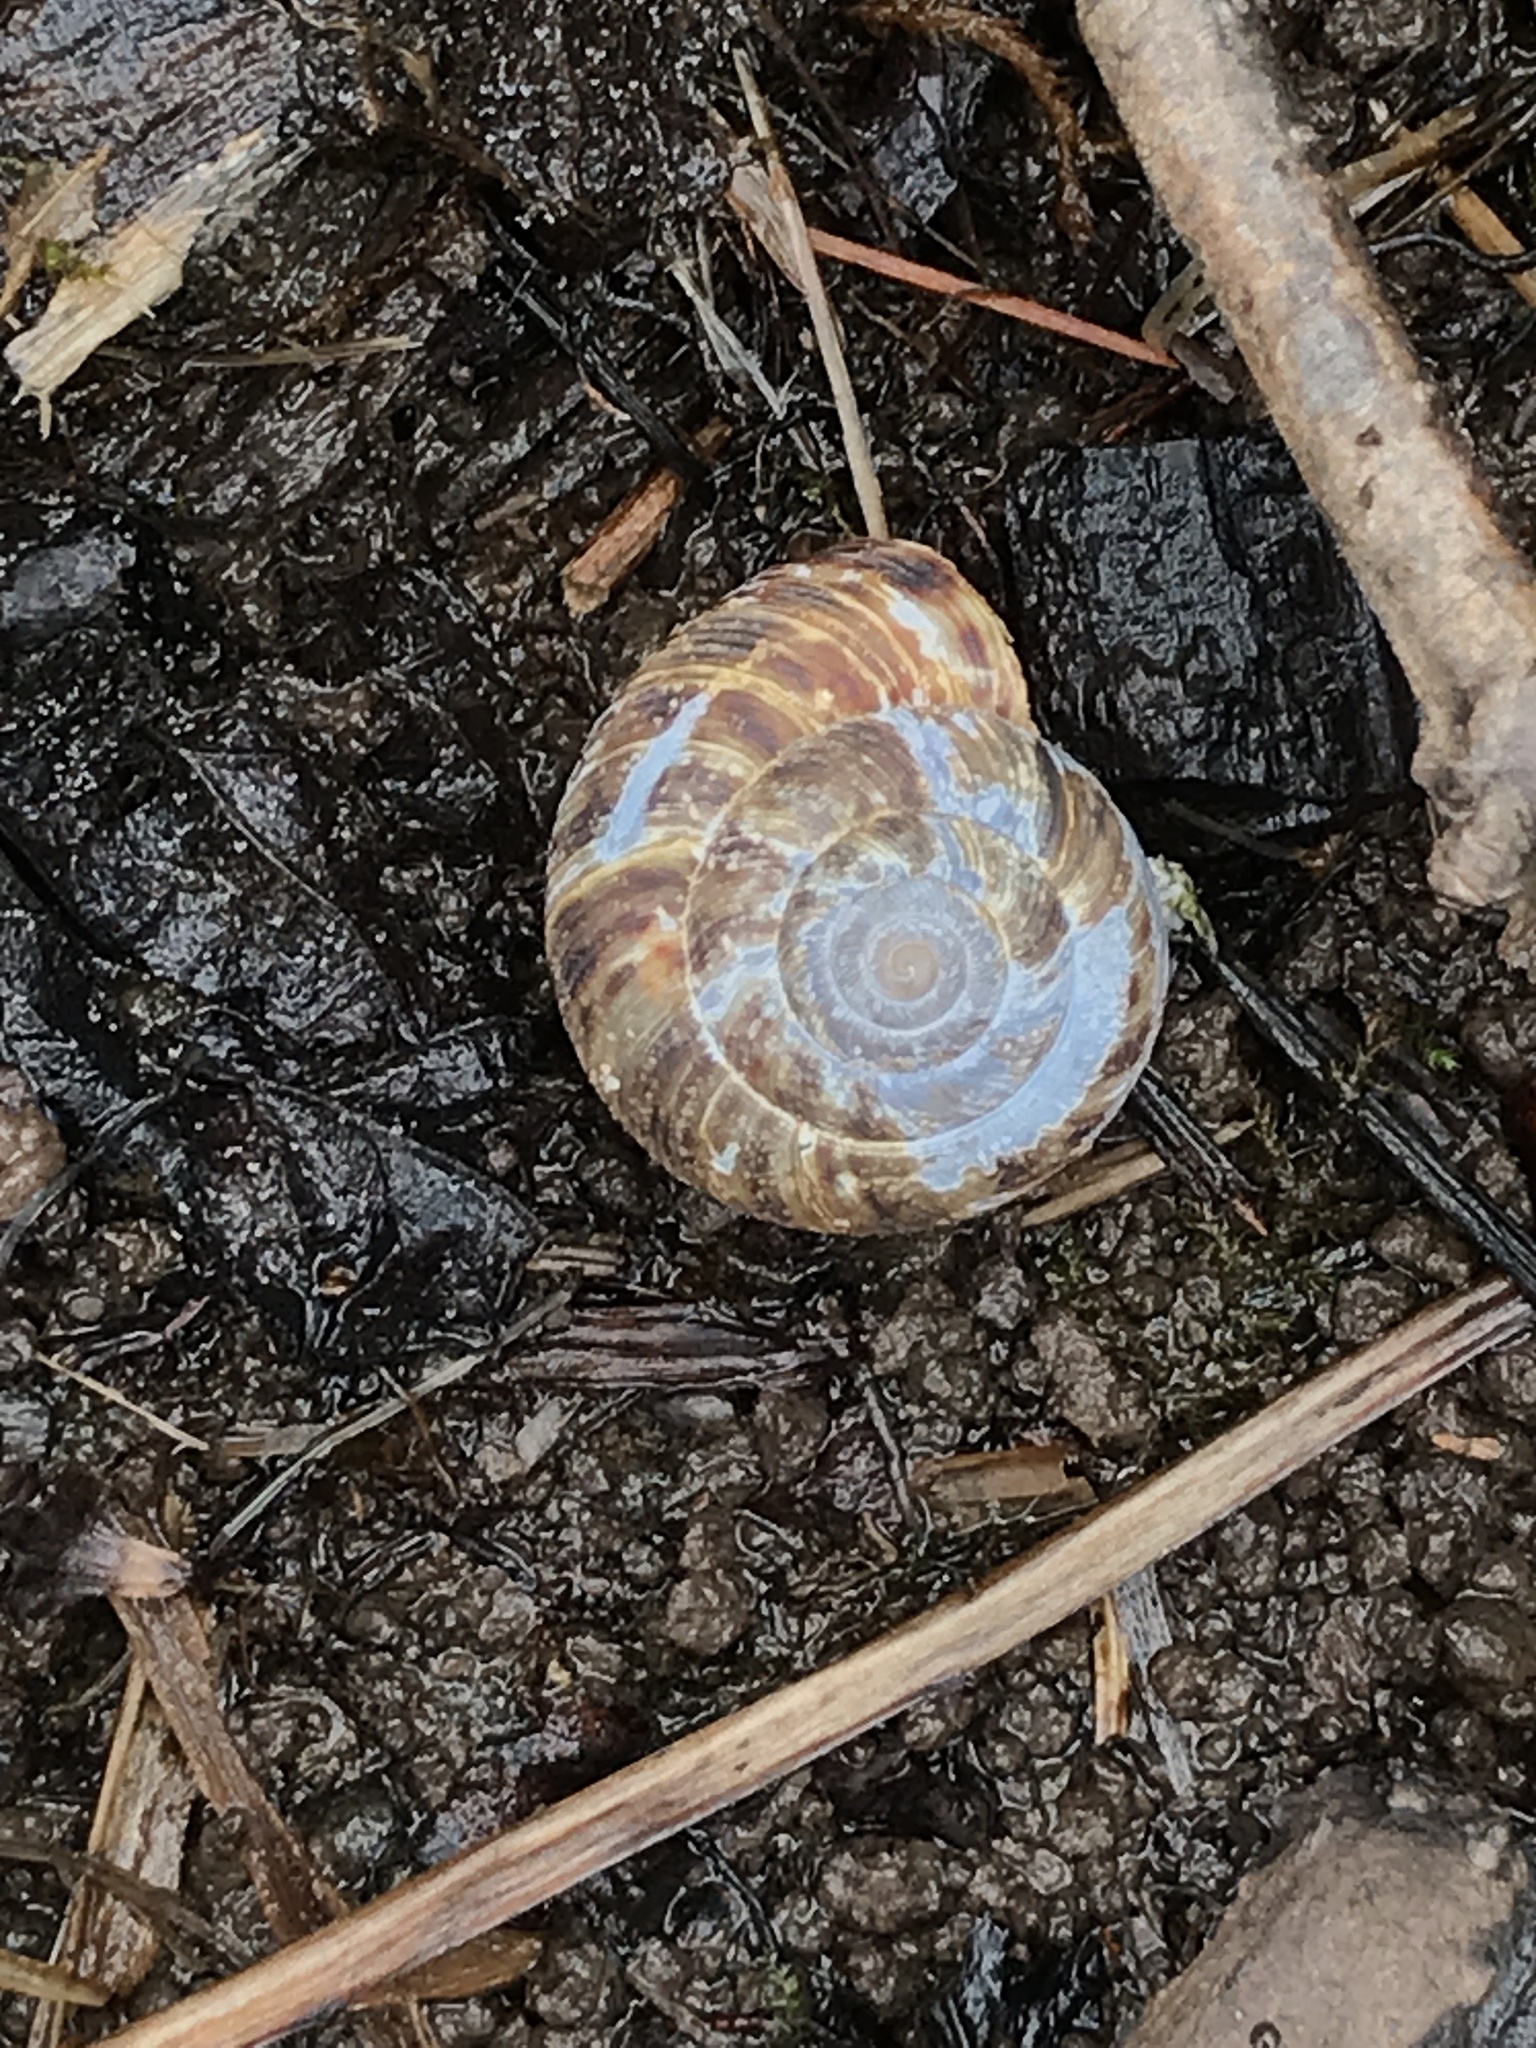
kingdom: Animalia
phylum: Mollusca
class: Gastropoda
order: Stylommatophora
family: Discidae
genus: Anguispira
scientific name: Anguispira alternata
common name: Flamed tigersnail
